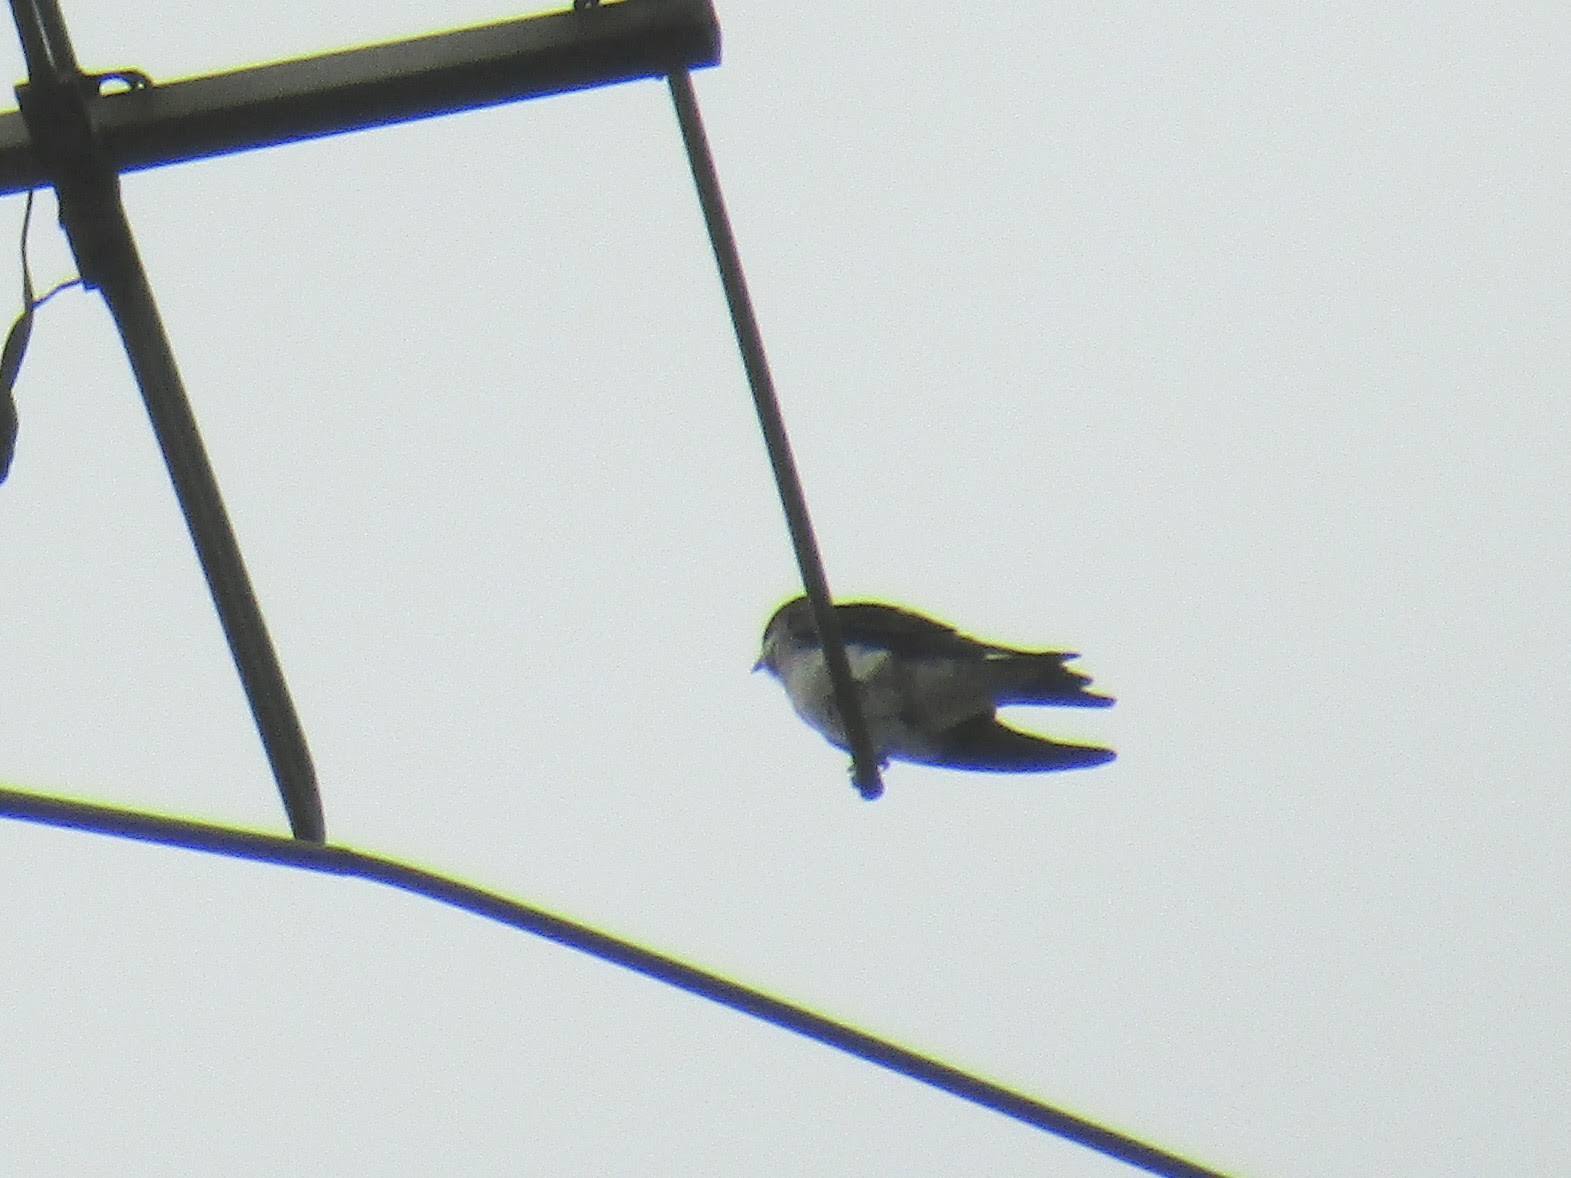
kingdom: Animalia
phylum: Chordata
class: Aves
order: Passeriformes
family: Hirundinidae
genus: Progne
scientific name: Progne chalybea
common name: Grey-breasted martin
